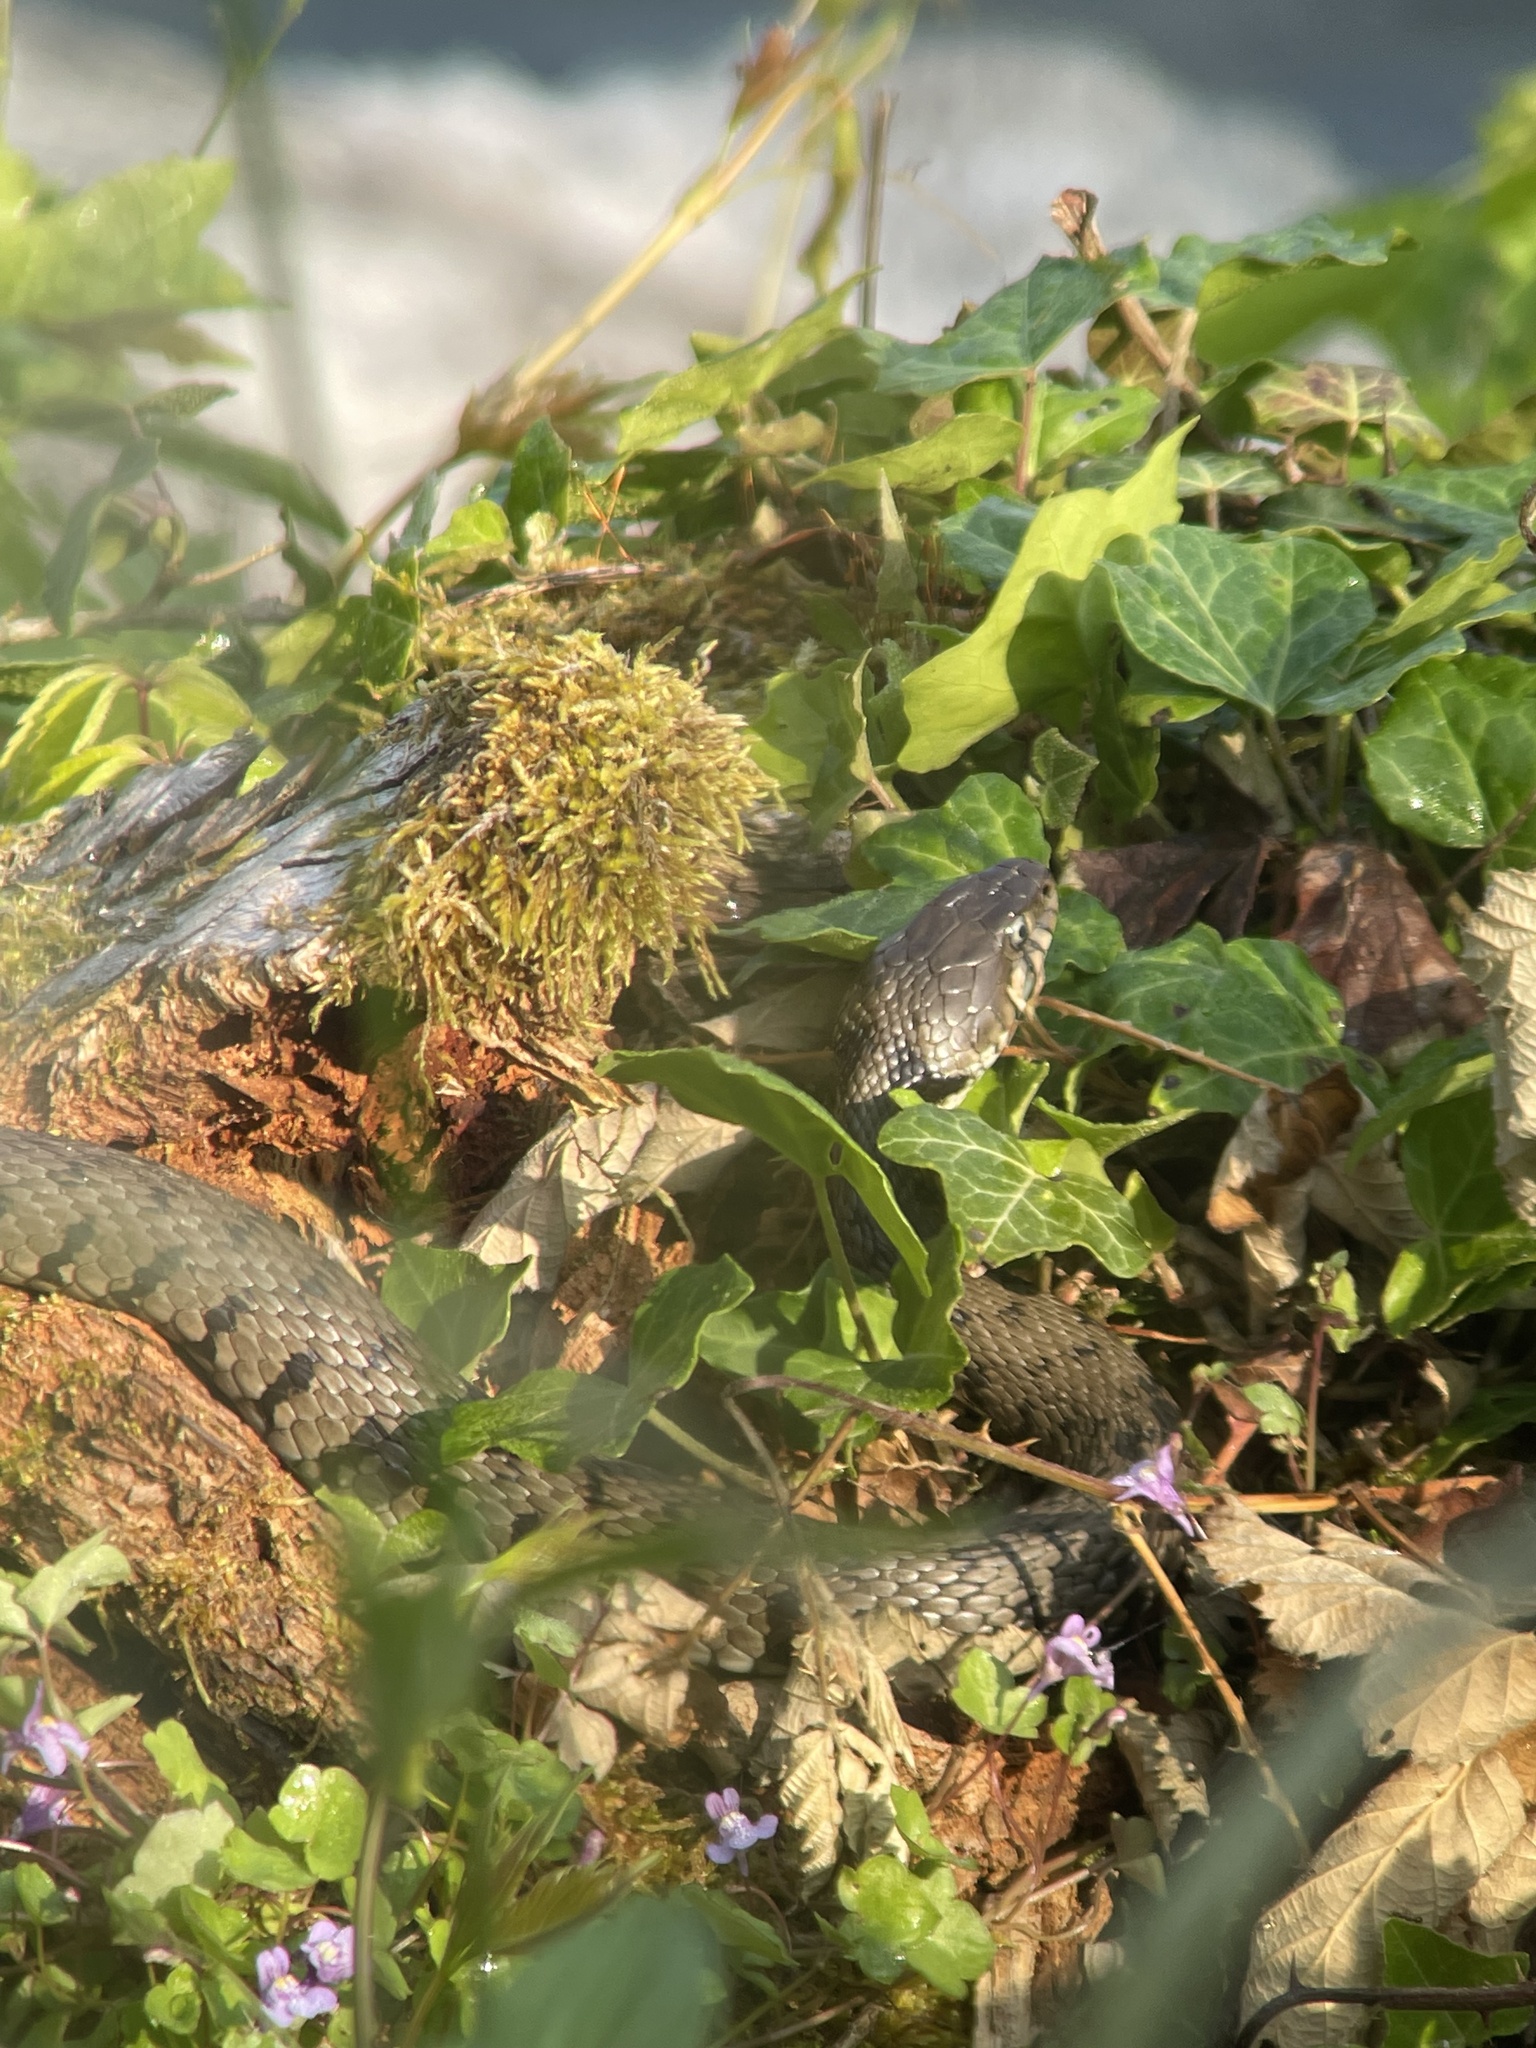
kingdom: Animalia
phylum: Chordata
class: Squamata
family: Colubridae
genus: Natrix
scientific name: Natrix helvetica
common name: Banded grass snake
